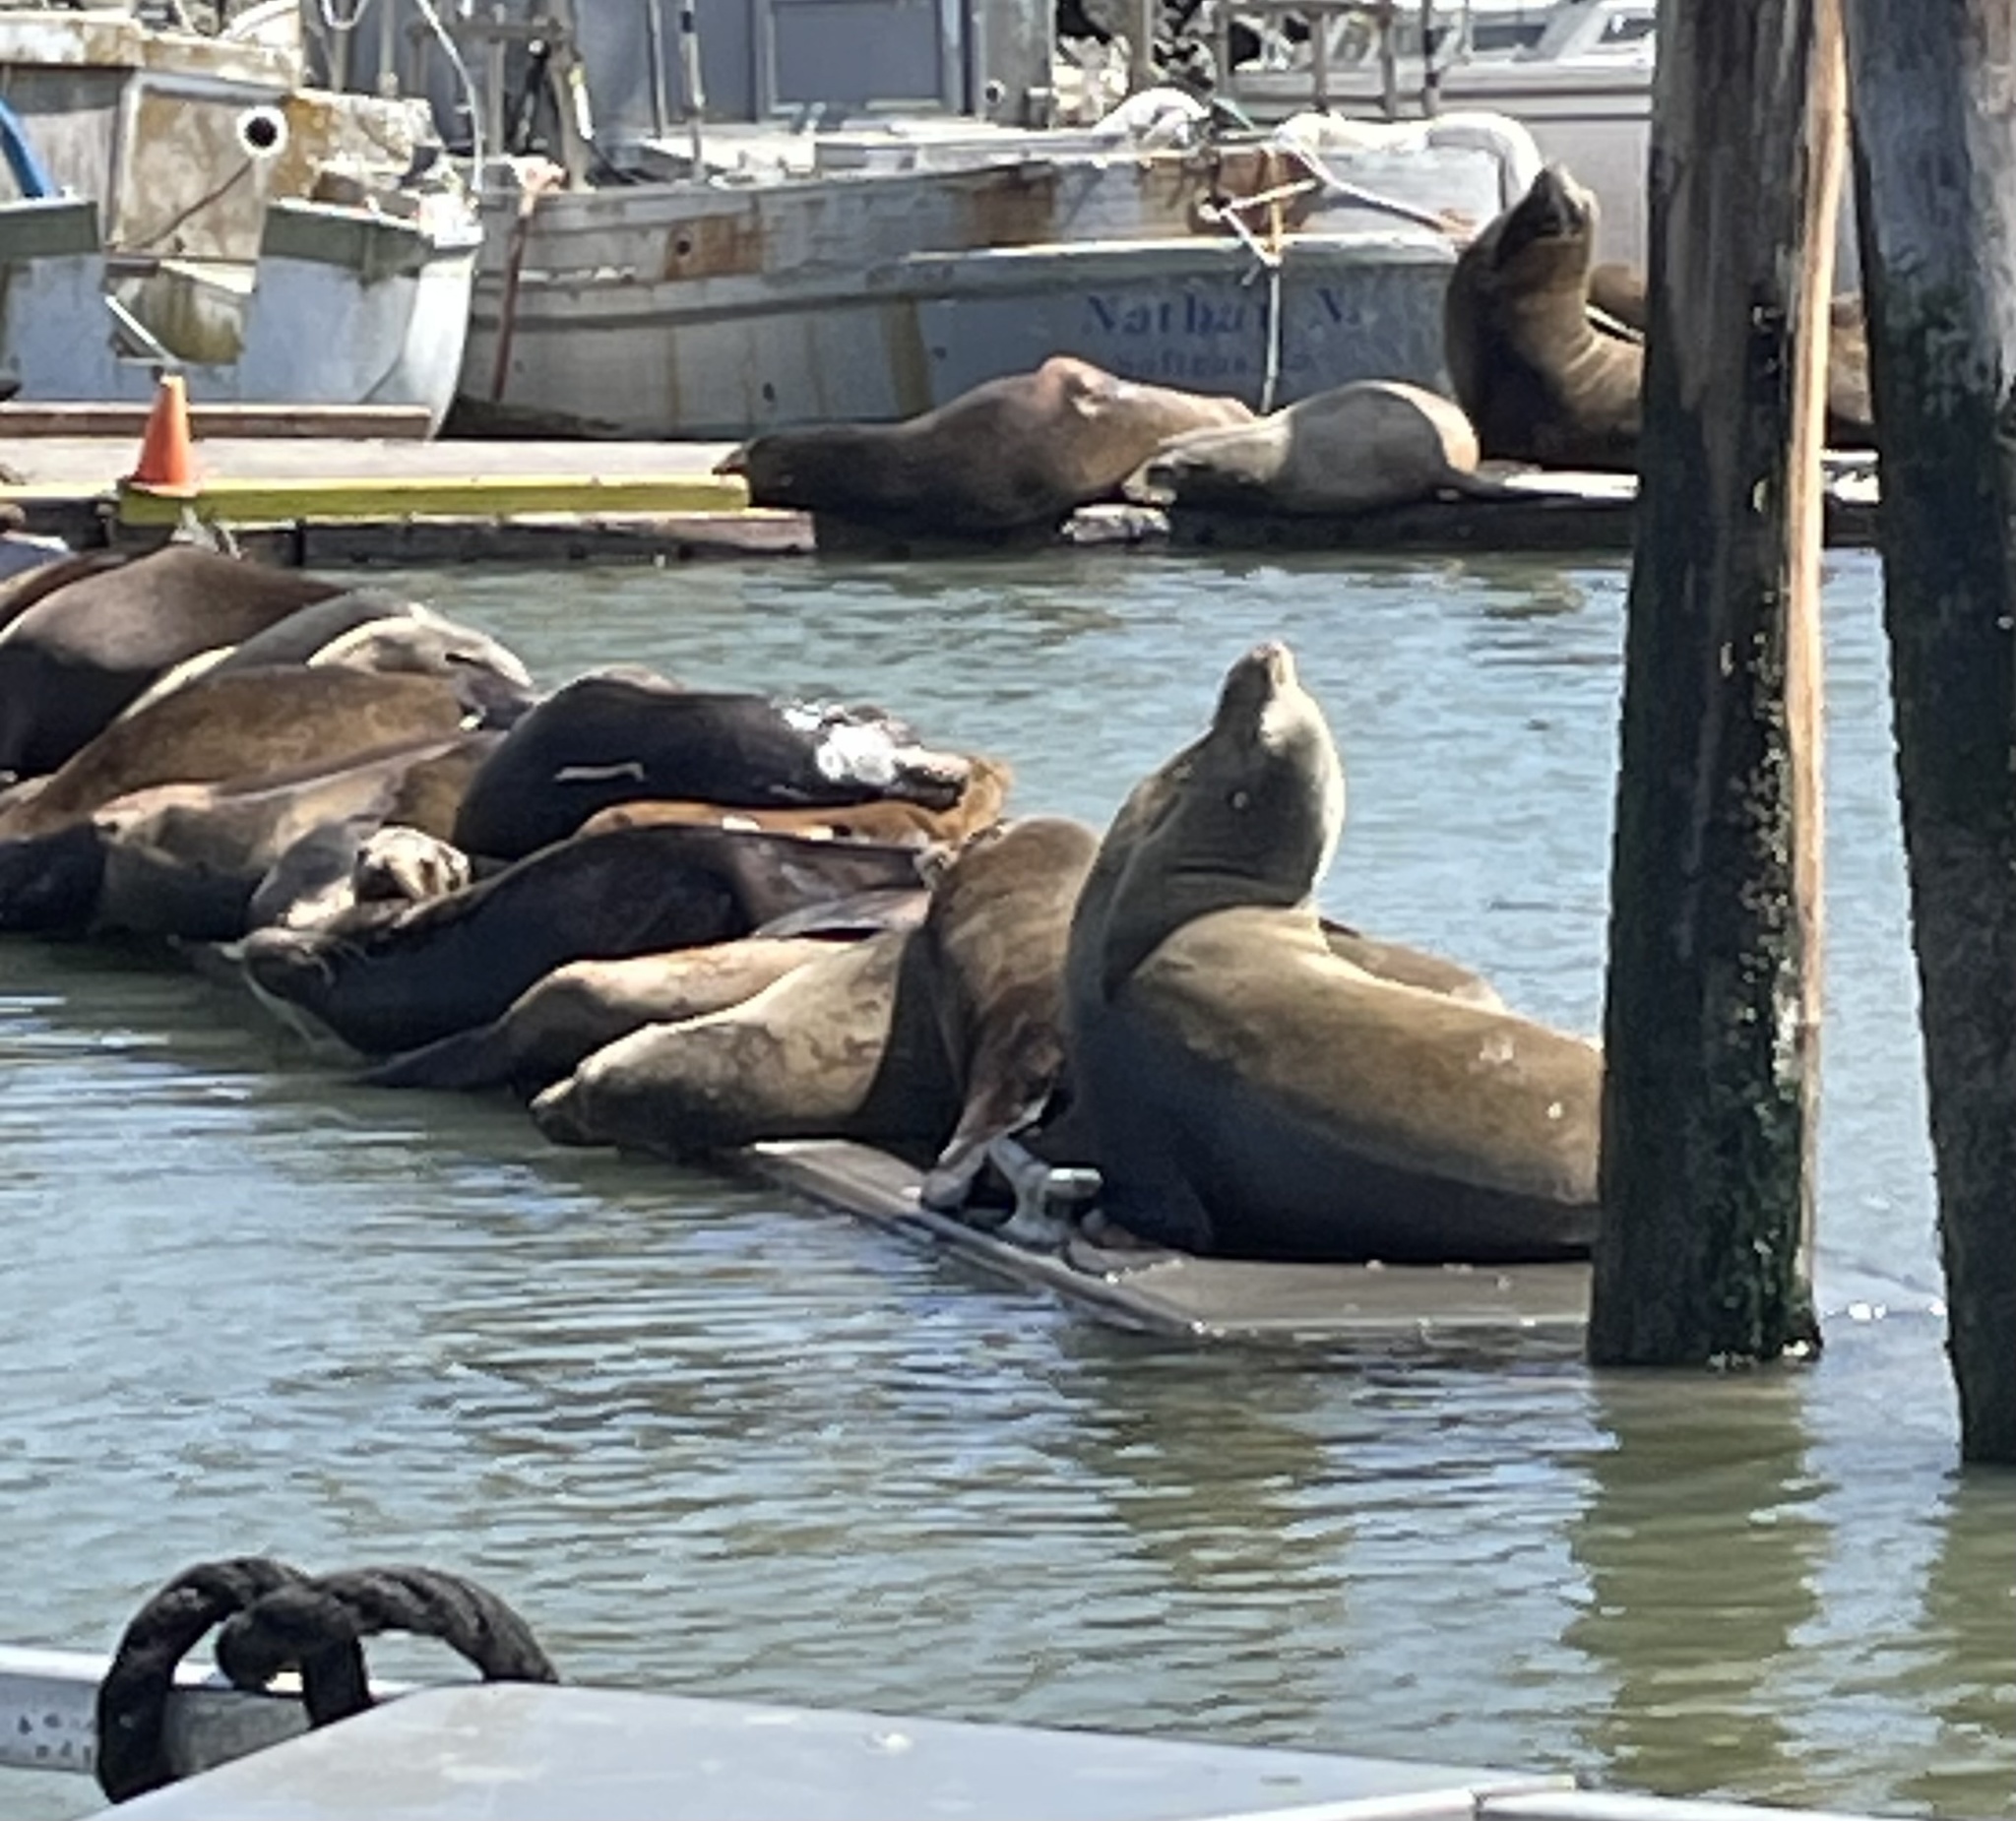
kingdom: Animalia
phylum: Chordata
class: Mammalia
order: Carnivora
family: Otariidae
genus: Zalophus
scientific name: Zalophus californianus
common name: California sea lion
